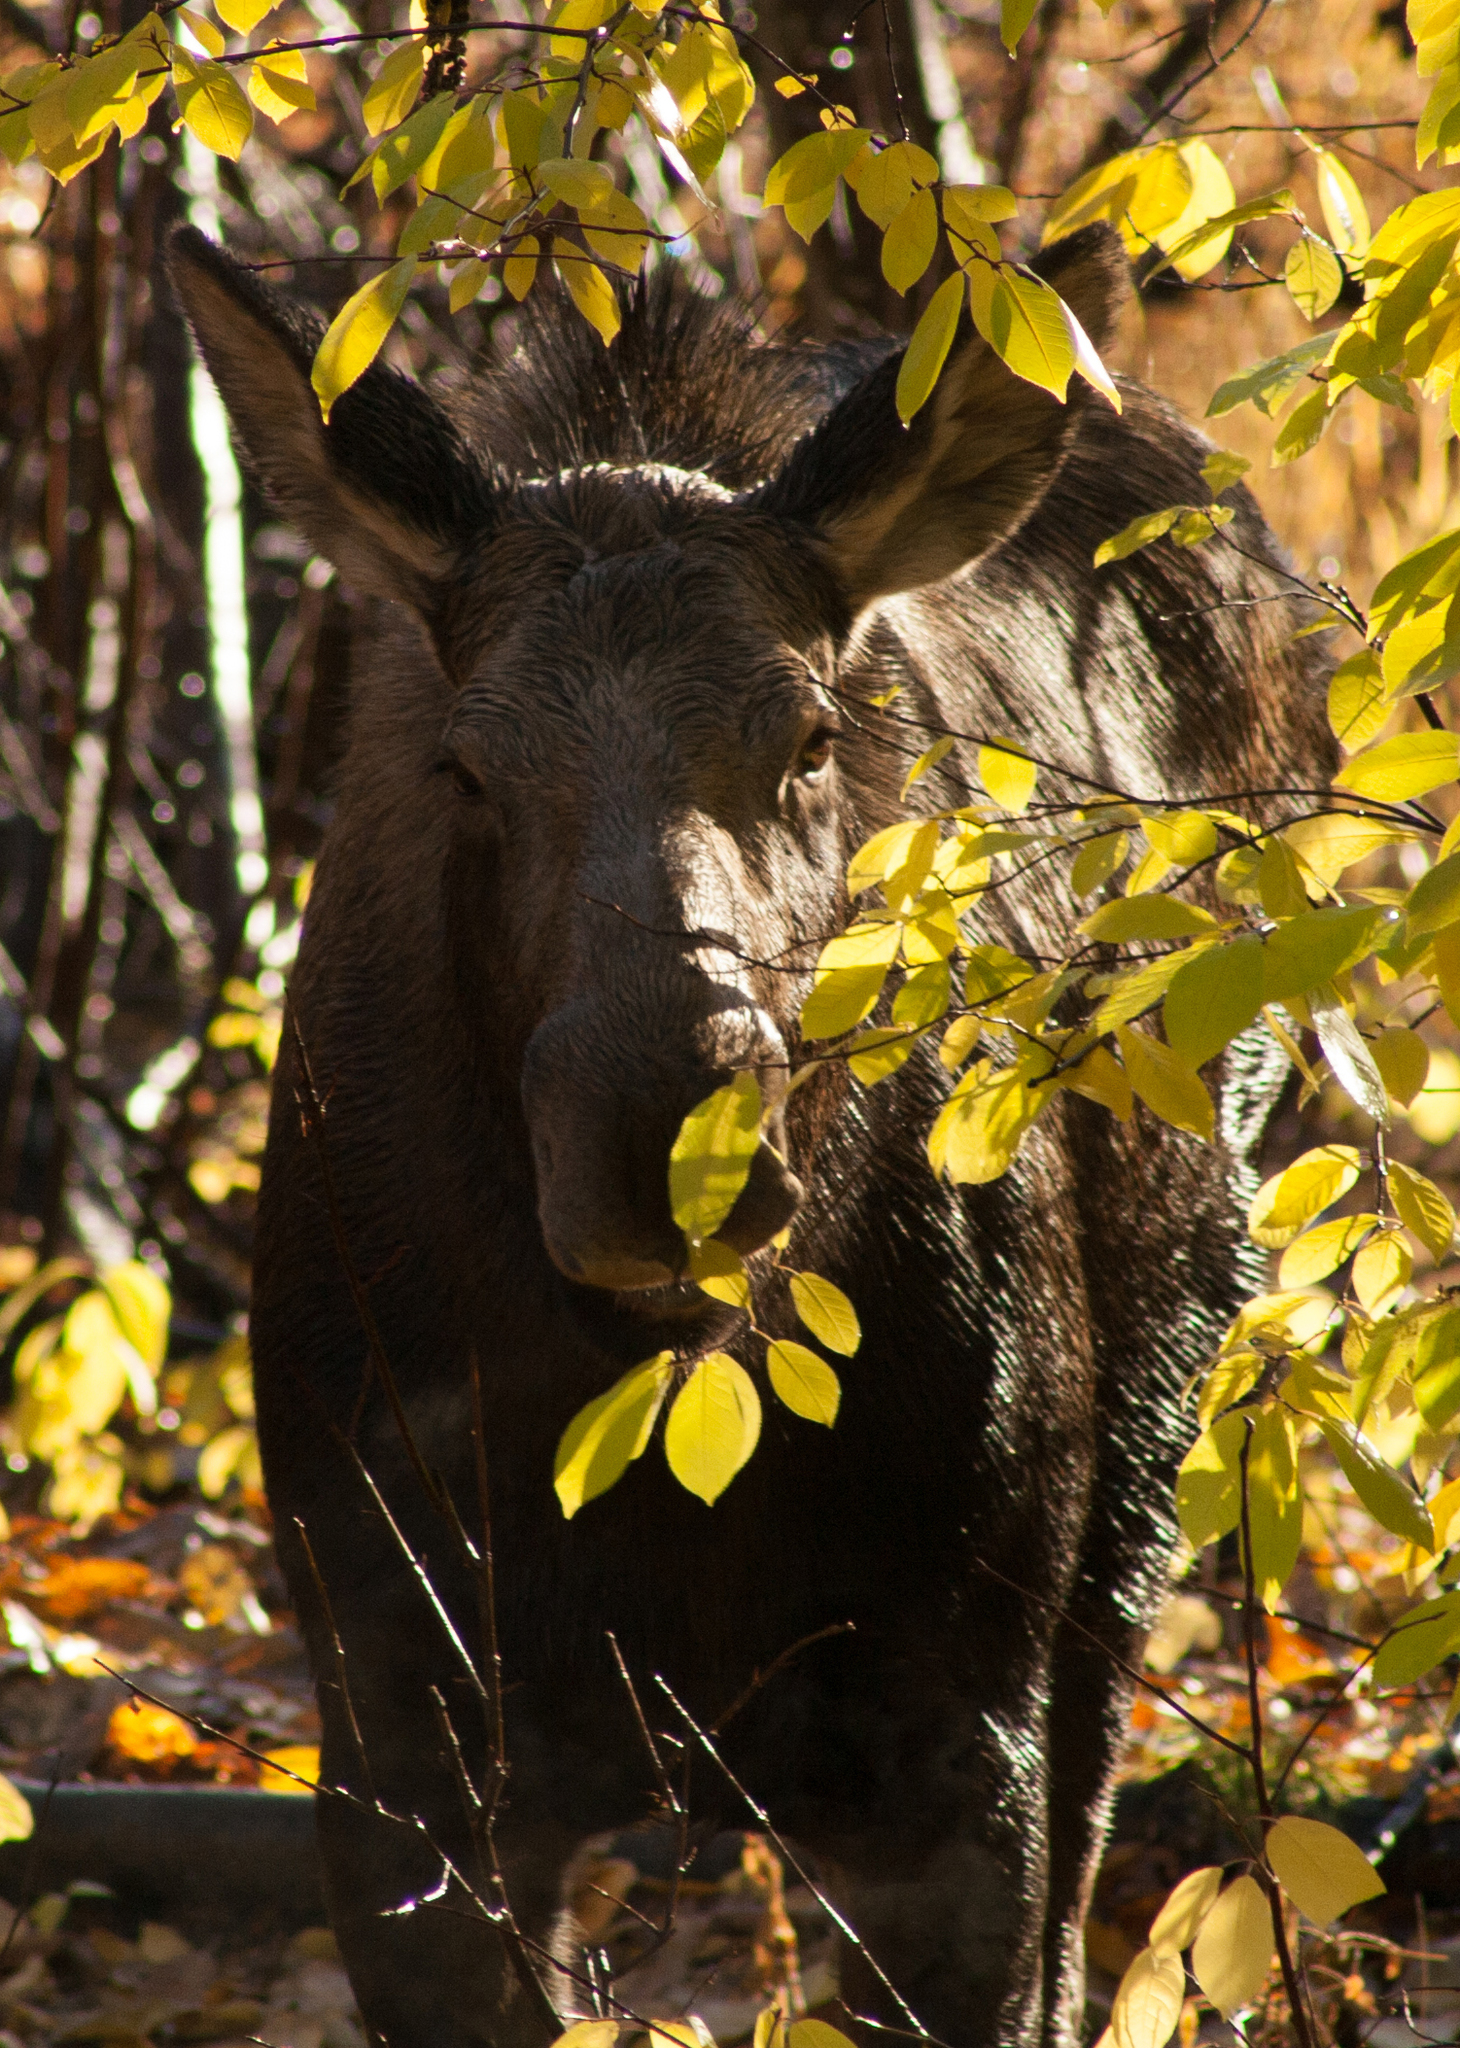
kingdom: Animalia
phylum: Chordata
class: Mammalia
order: Artiodactyla
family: Cervidae
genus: Alces
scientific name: Alces alces
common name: Moose
